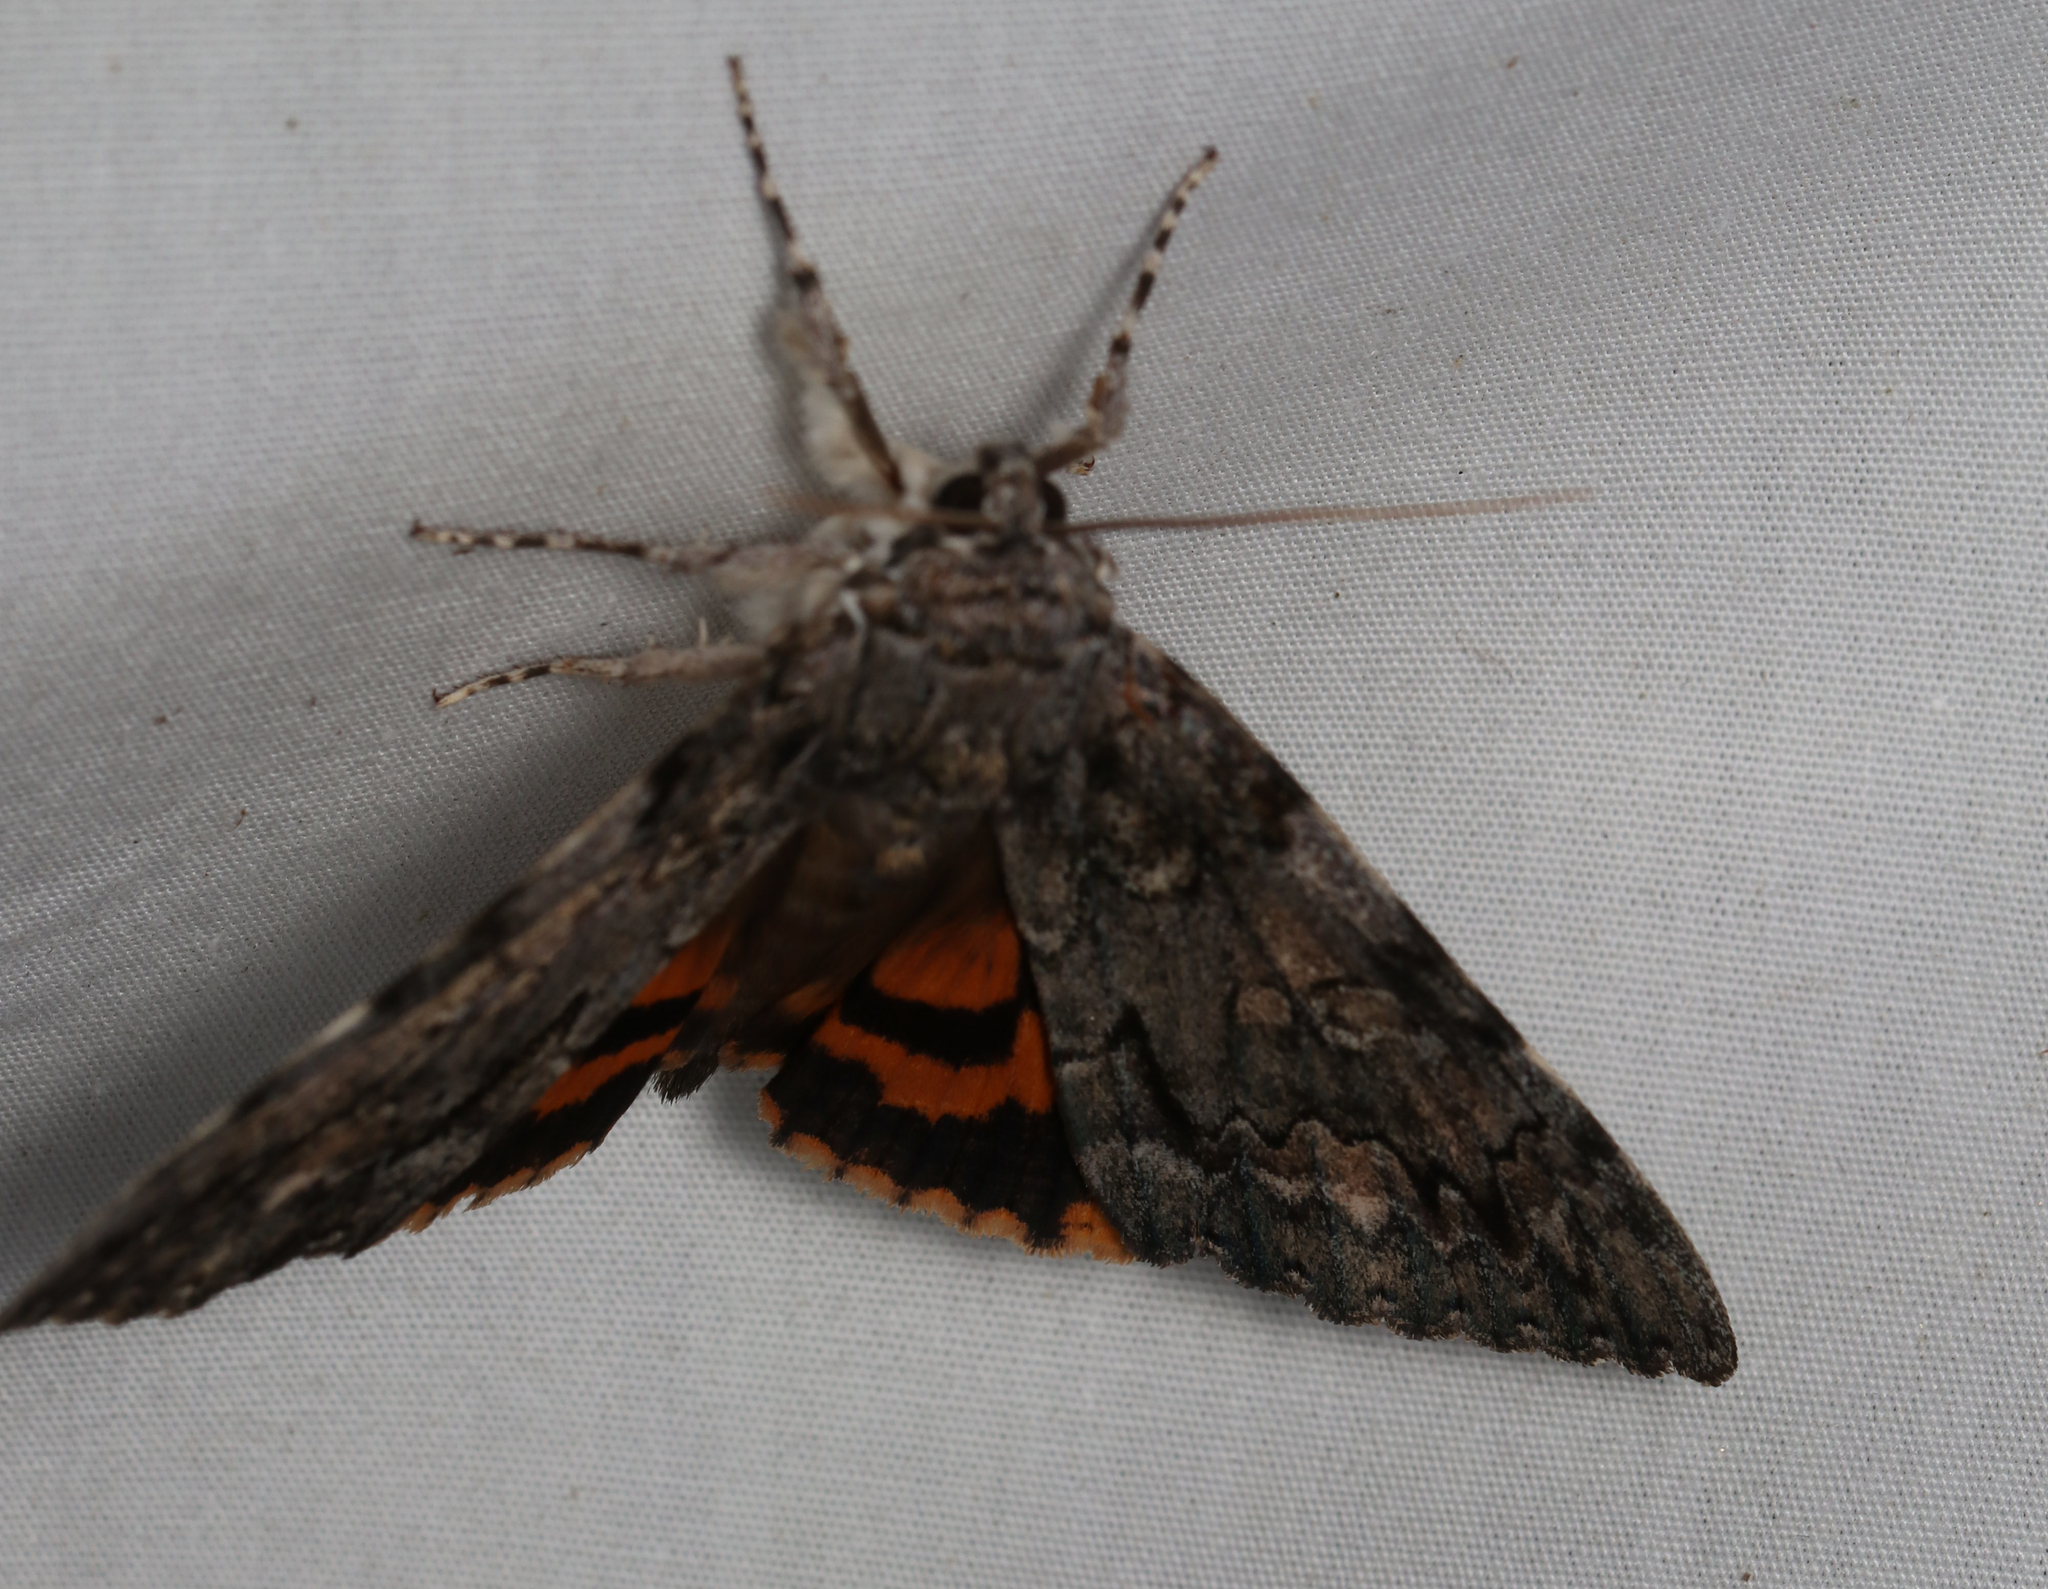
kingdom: Animalia
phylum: Arthropoda
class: Insecta
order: Lepidoptera
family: Erebidae
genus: Catocala
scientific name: Catocala palaeogama
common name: Oldwife underwing
